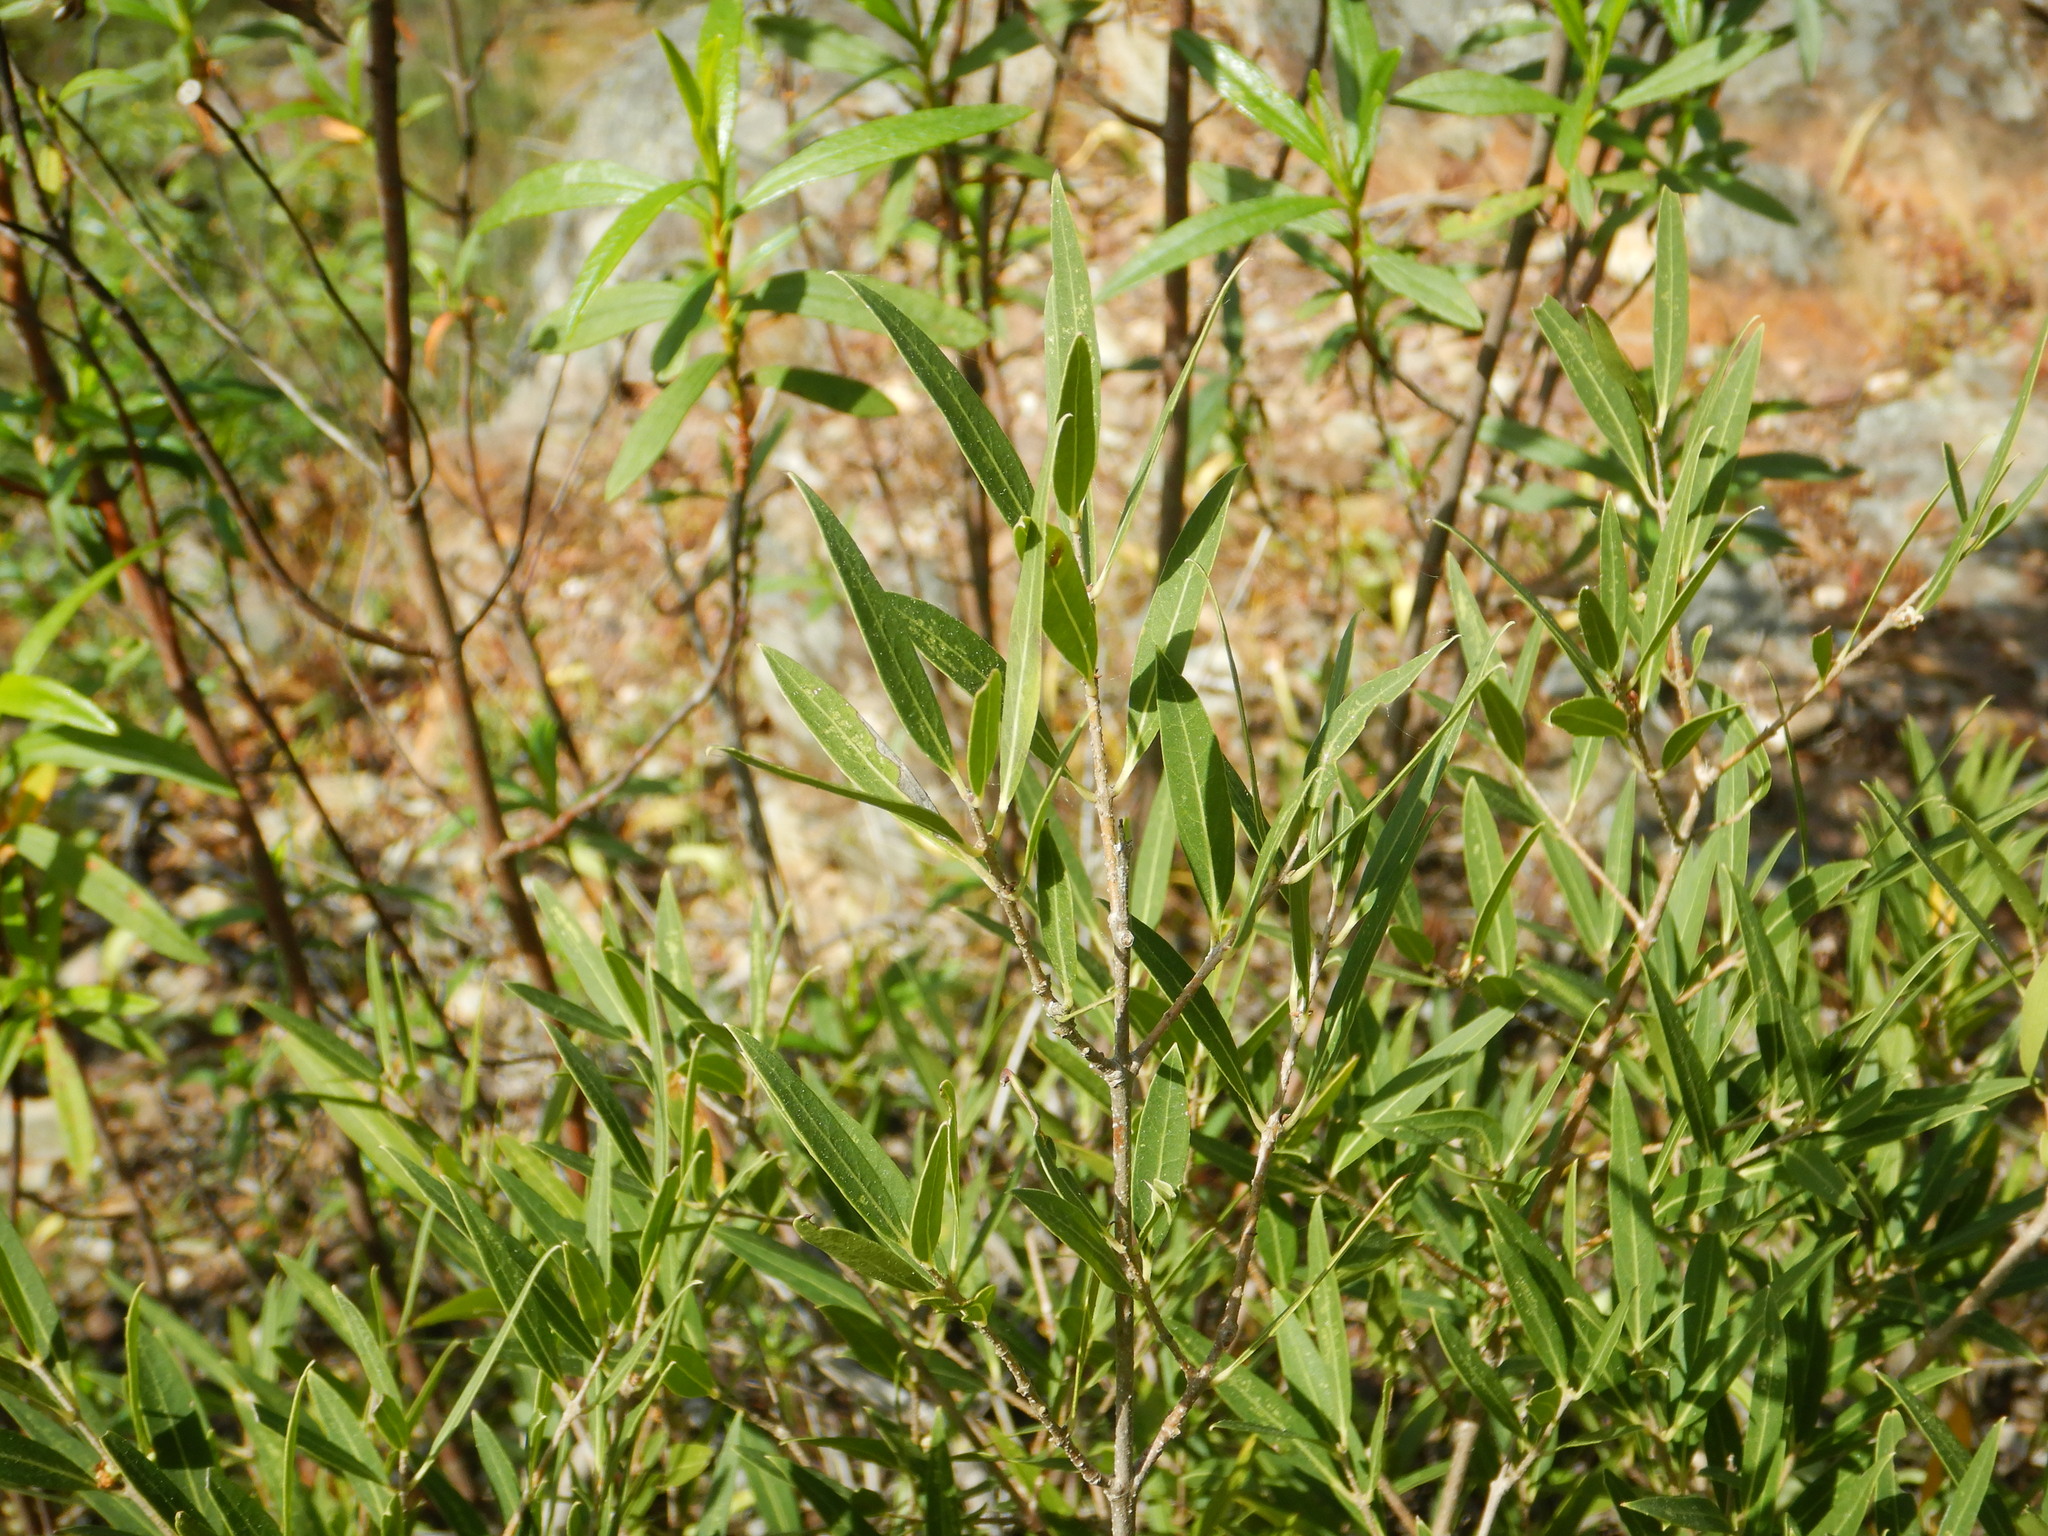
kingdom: Plantae
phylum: Tracheophyta
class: Magnoliopsida
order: Lamiales
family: Oleaceae
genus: Phillyrea
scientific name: Phillyrea angustifolia
